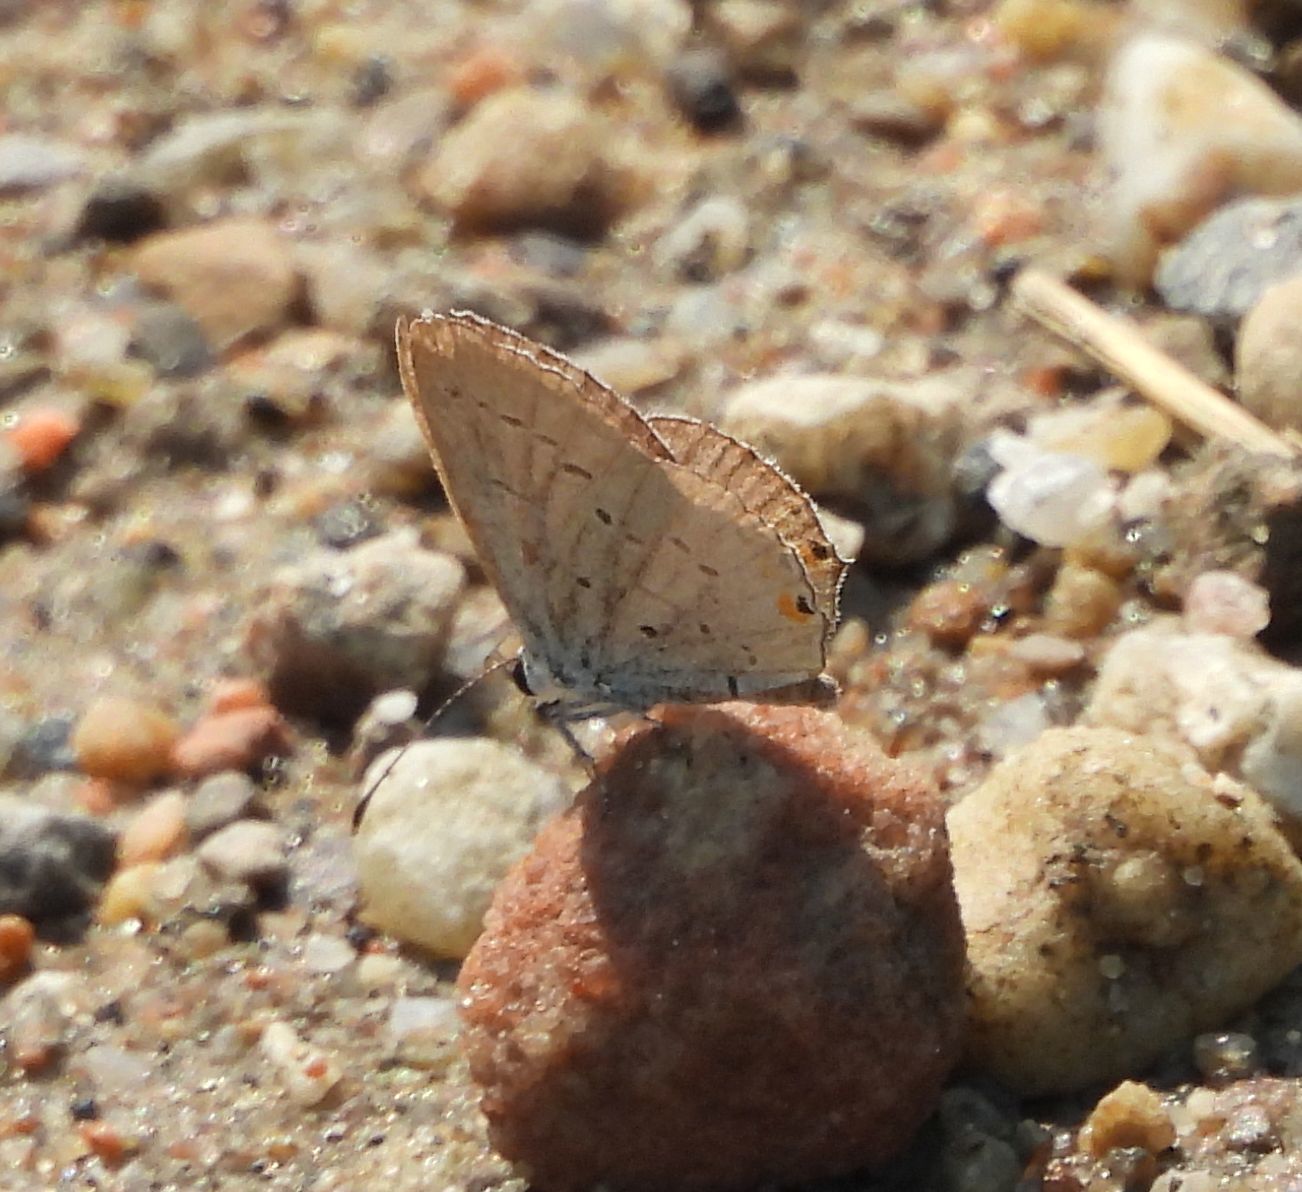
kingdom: Animalia
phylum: Arthropoda
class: Insecta
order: Lepidoptera
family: Lycaenidae
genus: Elkalyce
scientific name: Elkalyce comyntas
